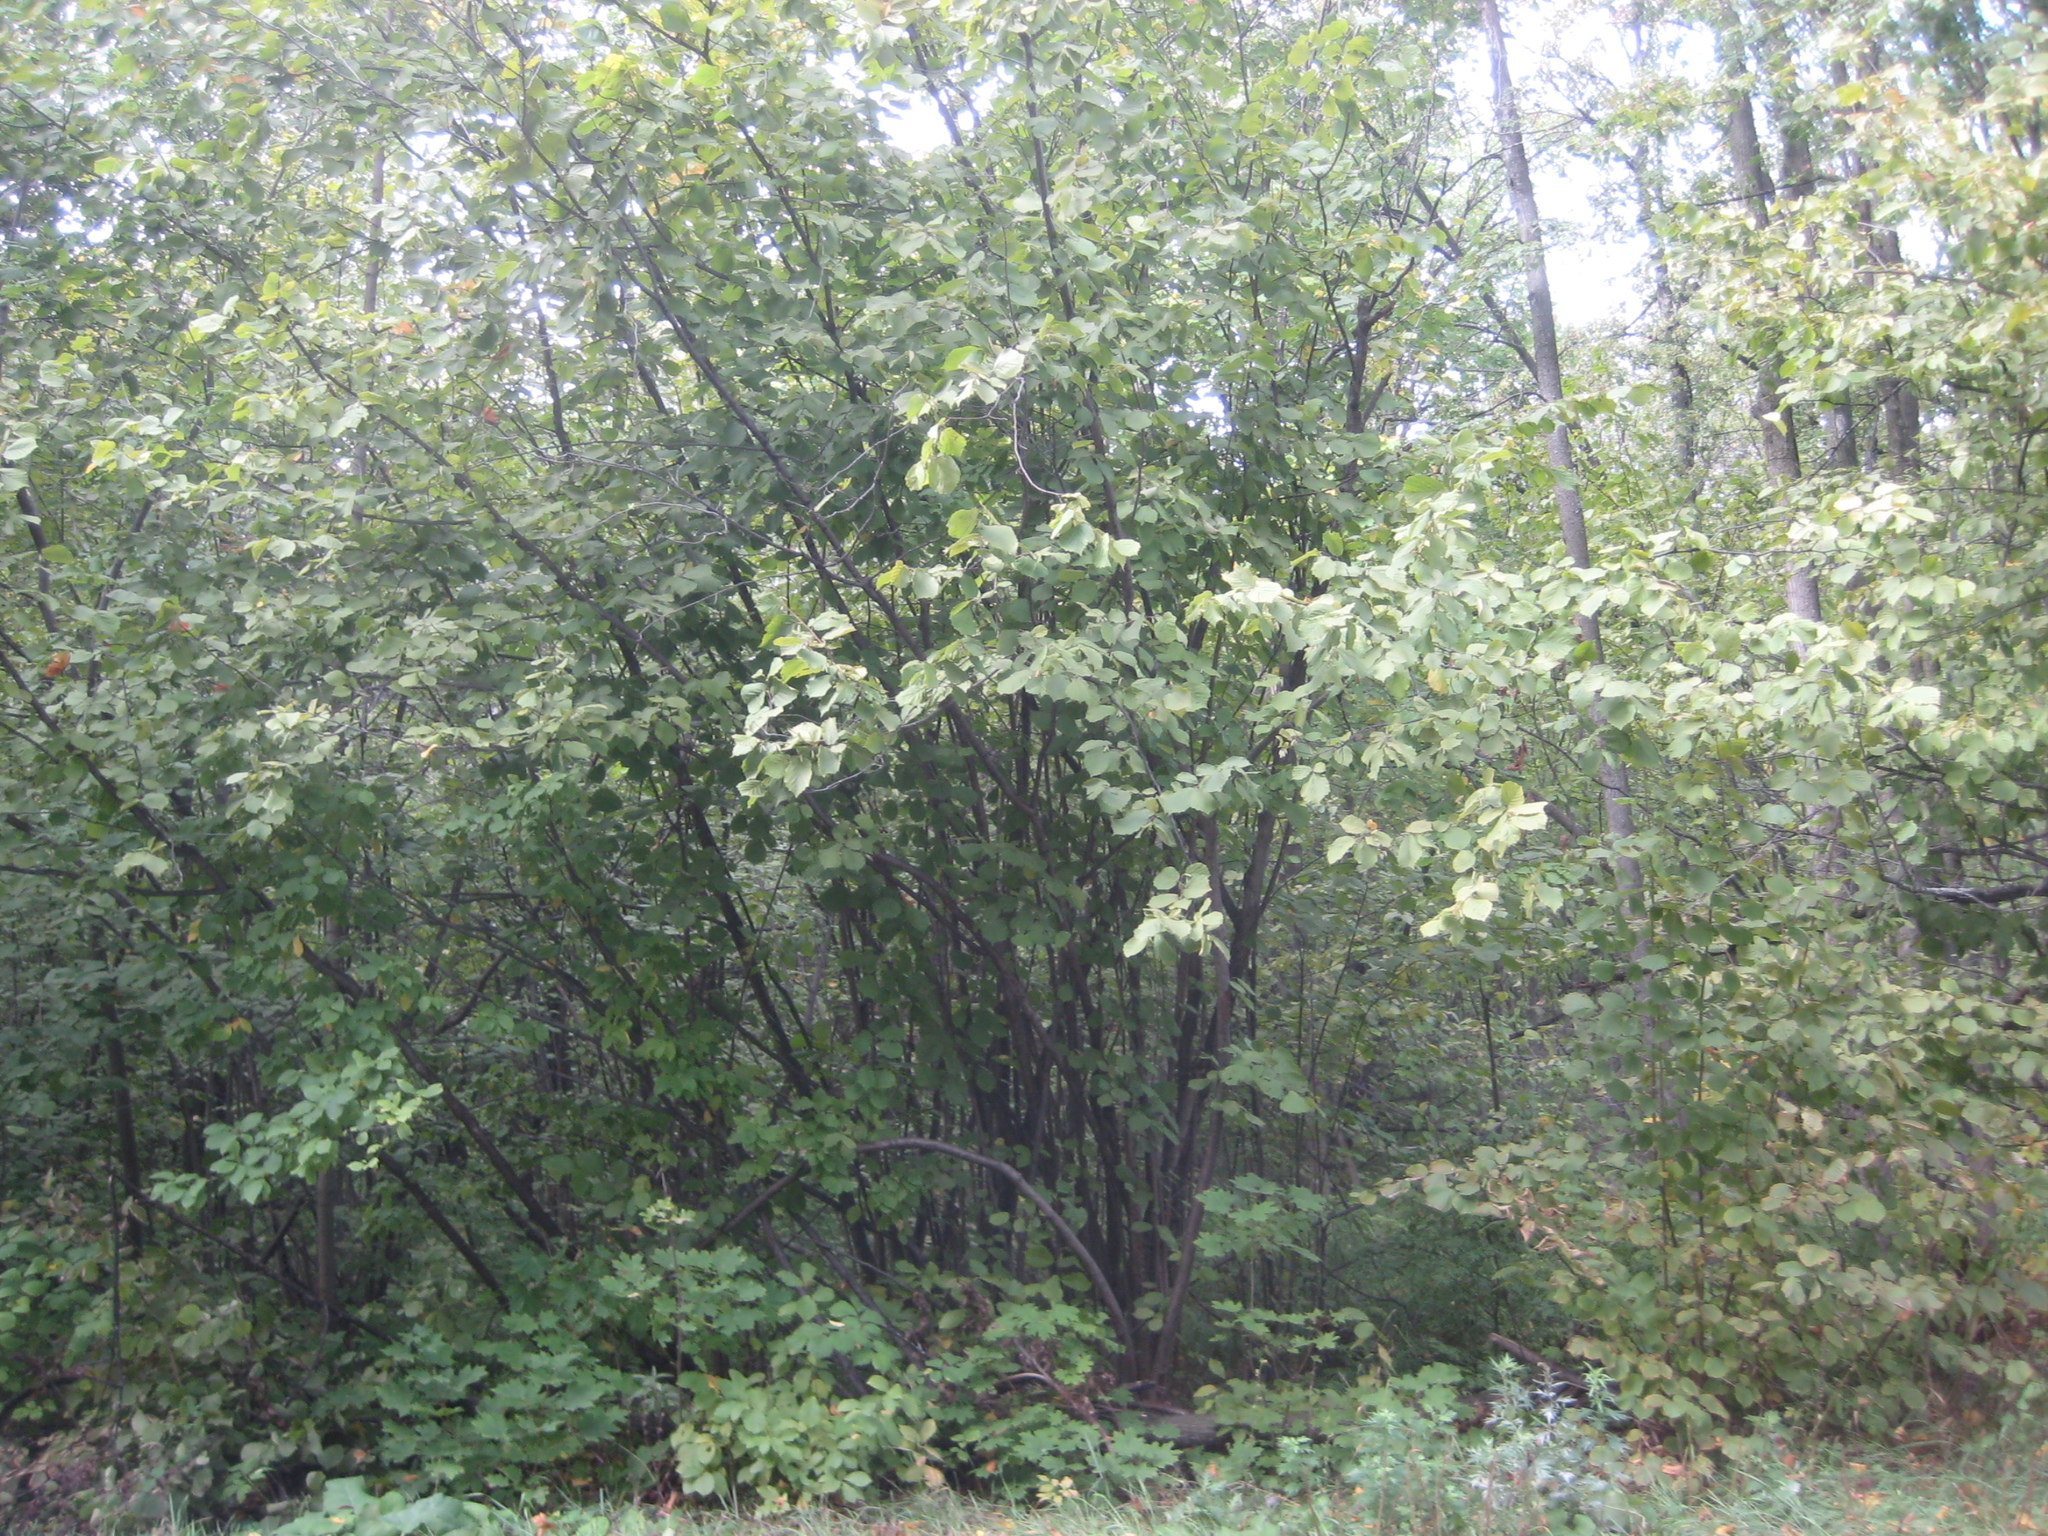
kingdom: Plantae
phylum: Tracheophyta
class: Magnoliopsida
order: Fagales
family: Betulaceae
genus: Corylus
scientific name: Corylus avellana
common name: European hazel
